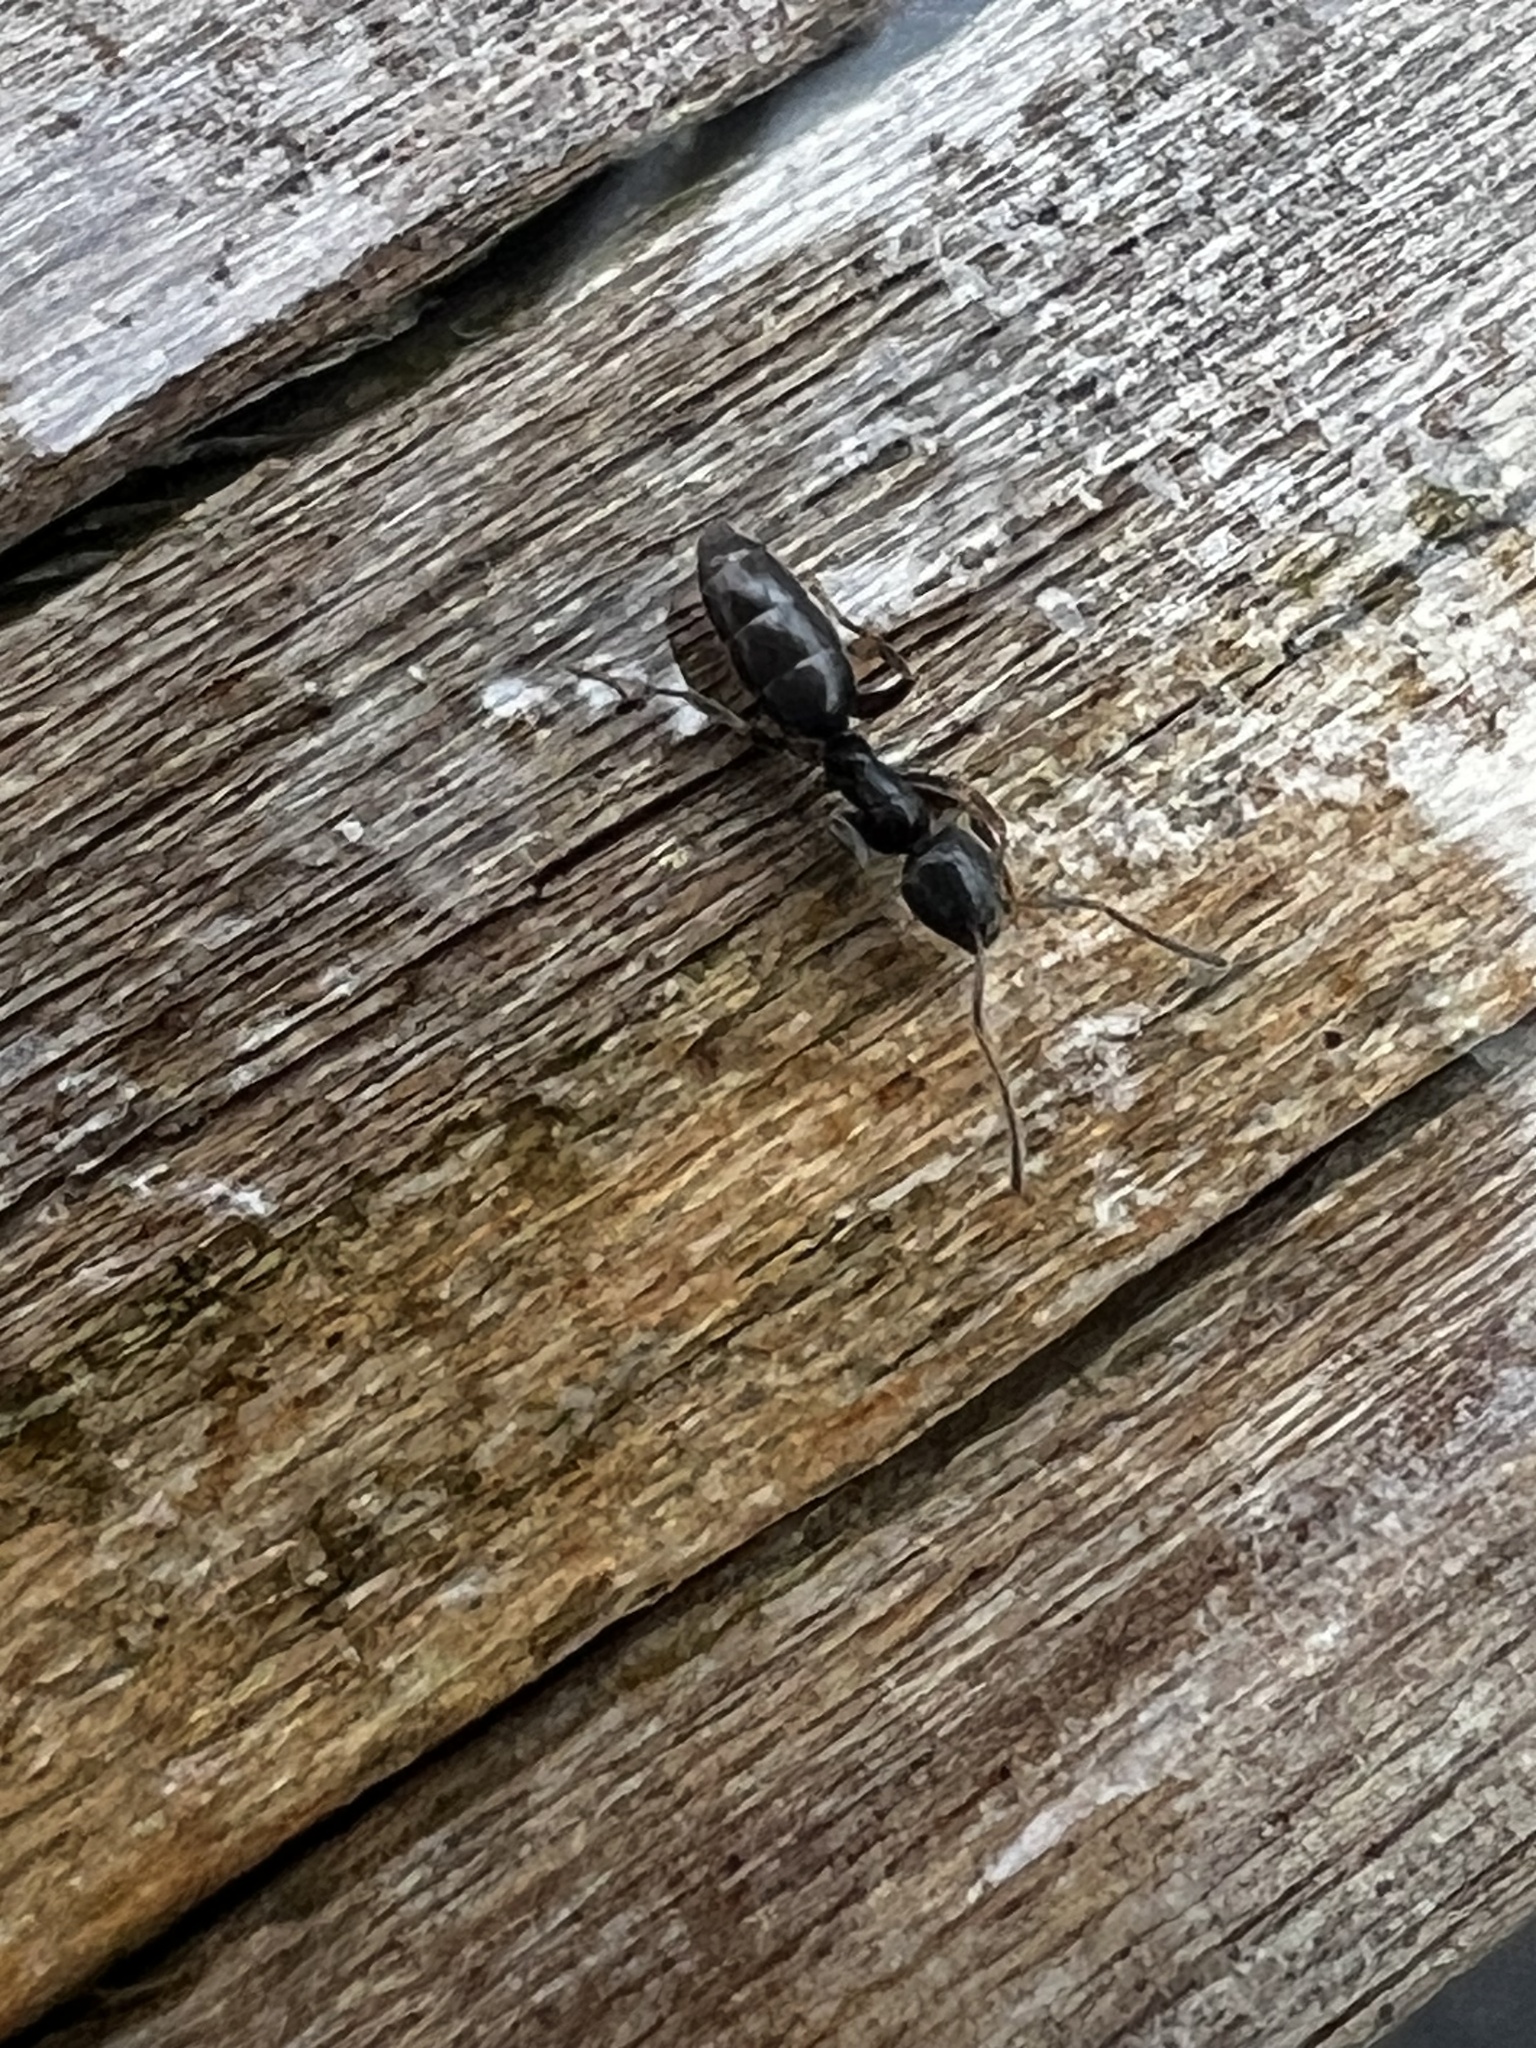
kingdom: Animalia
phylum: Arthropoda
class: Insecta
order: Hymenoptera
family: Formicidae
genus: Tapinoma
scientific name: Tapinoma sessile
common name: Odorous house ant
